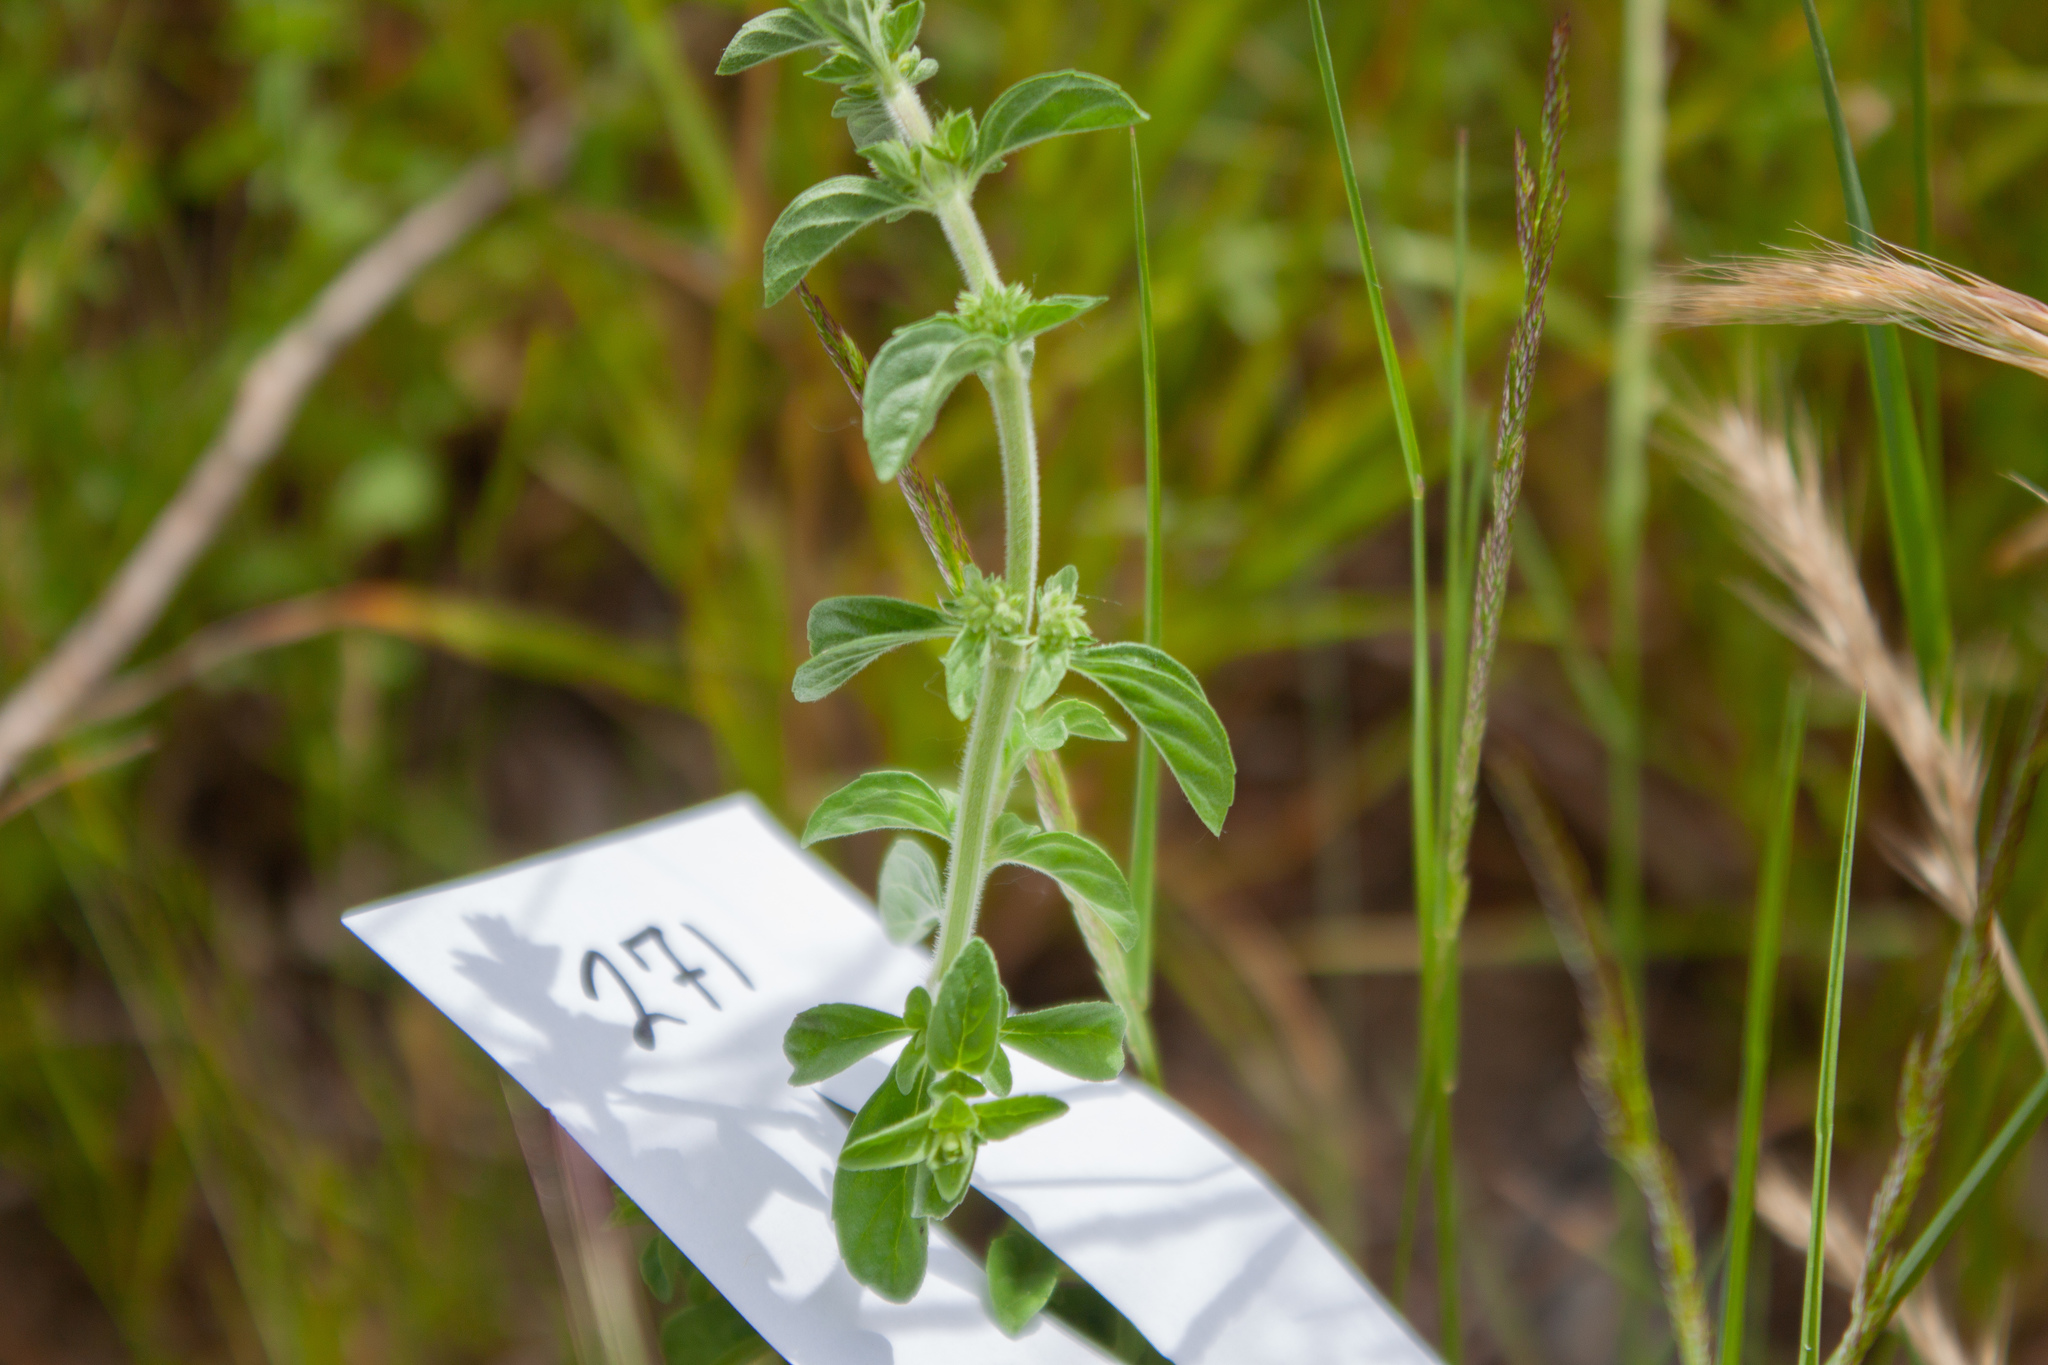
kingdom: Plantae
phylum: Tracheophyta
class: Magnoliopsida
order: Lamiales
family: Lamiaceae
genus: Mentha
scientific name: Mentha pulegium
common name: Pennyroyal
